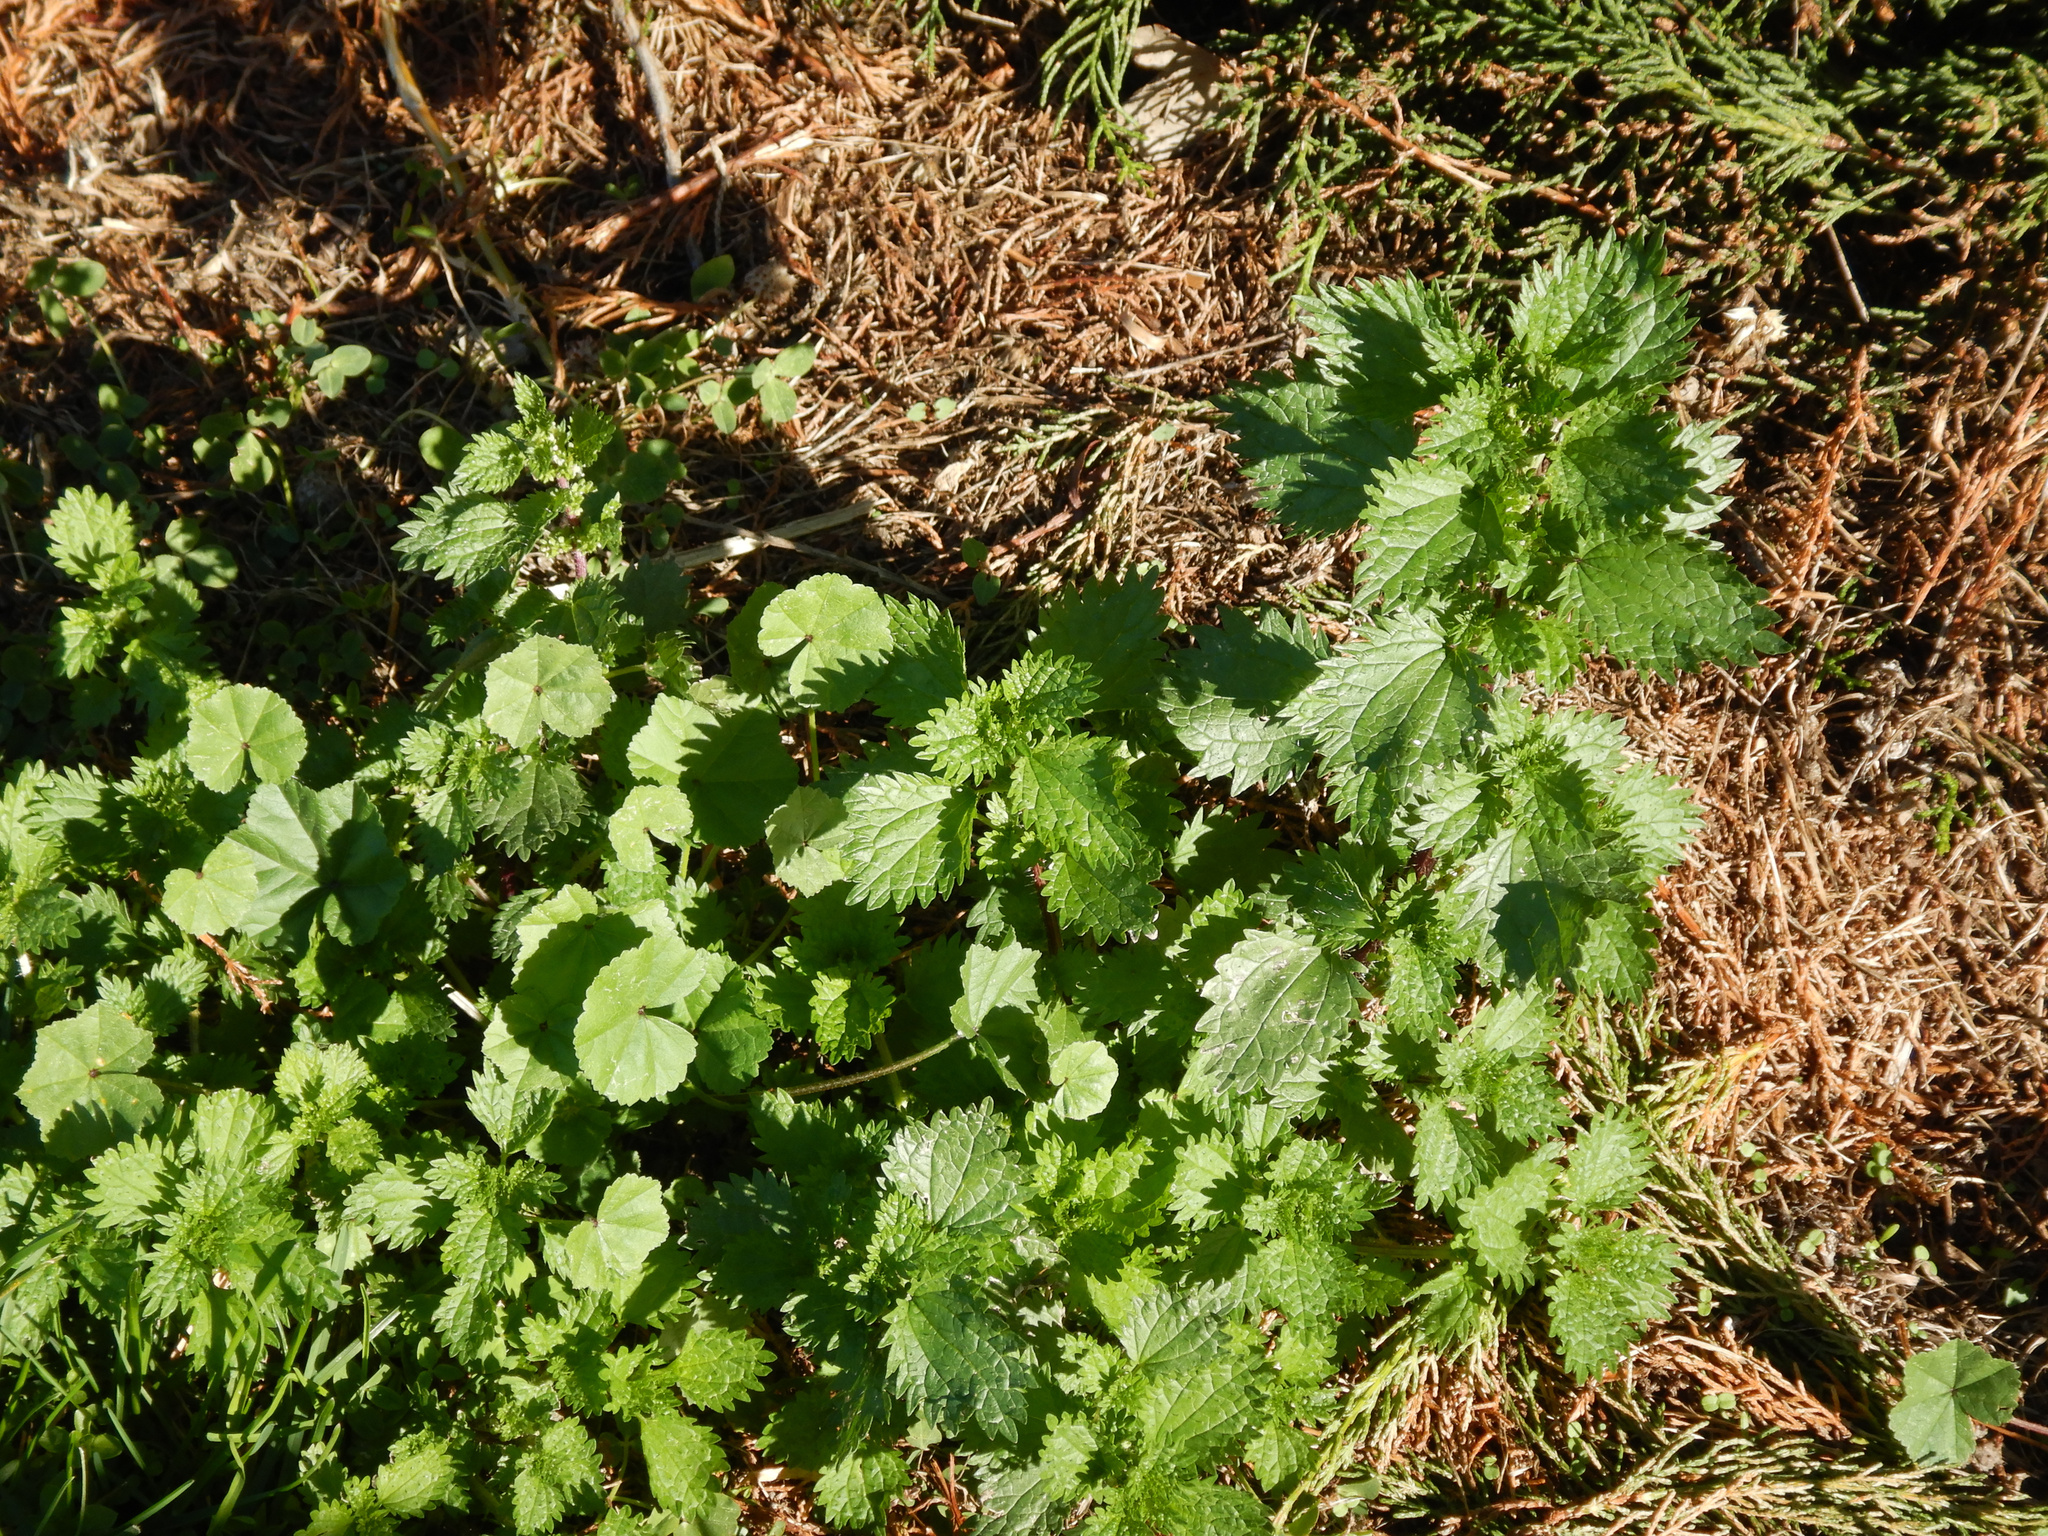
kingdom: Plantae
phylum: Tracheophyta
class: Magnoliopsida
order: Rosales
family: Urticaceae
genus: Urtica
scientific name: Urtica urens
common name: Dwarf nettle
